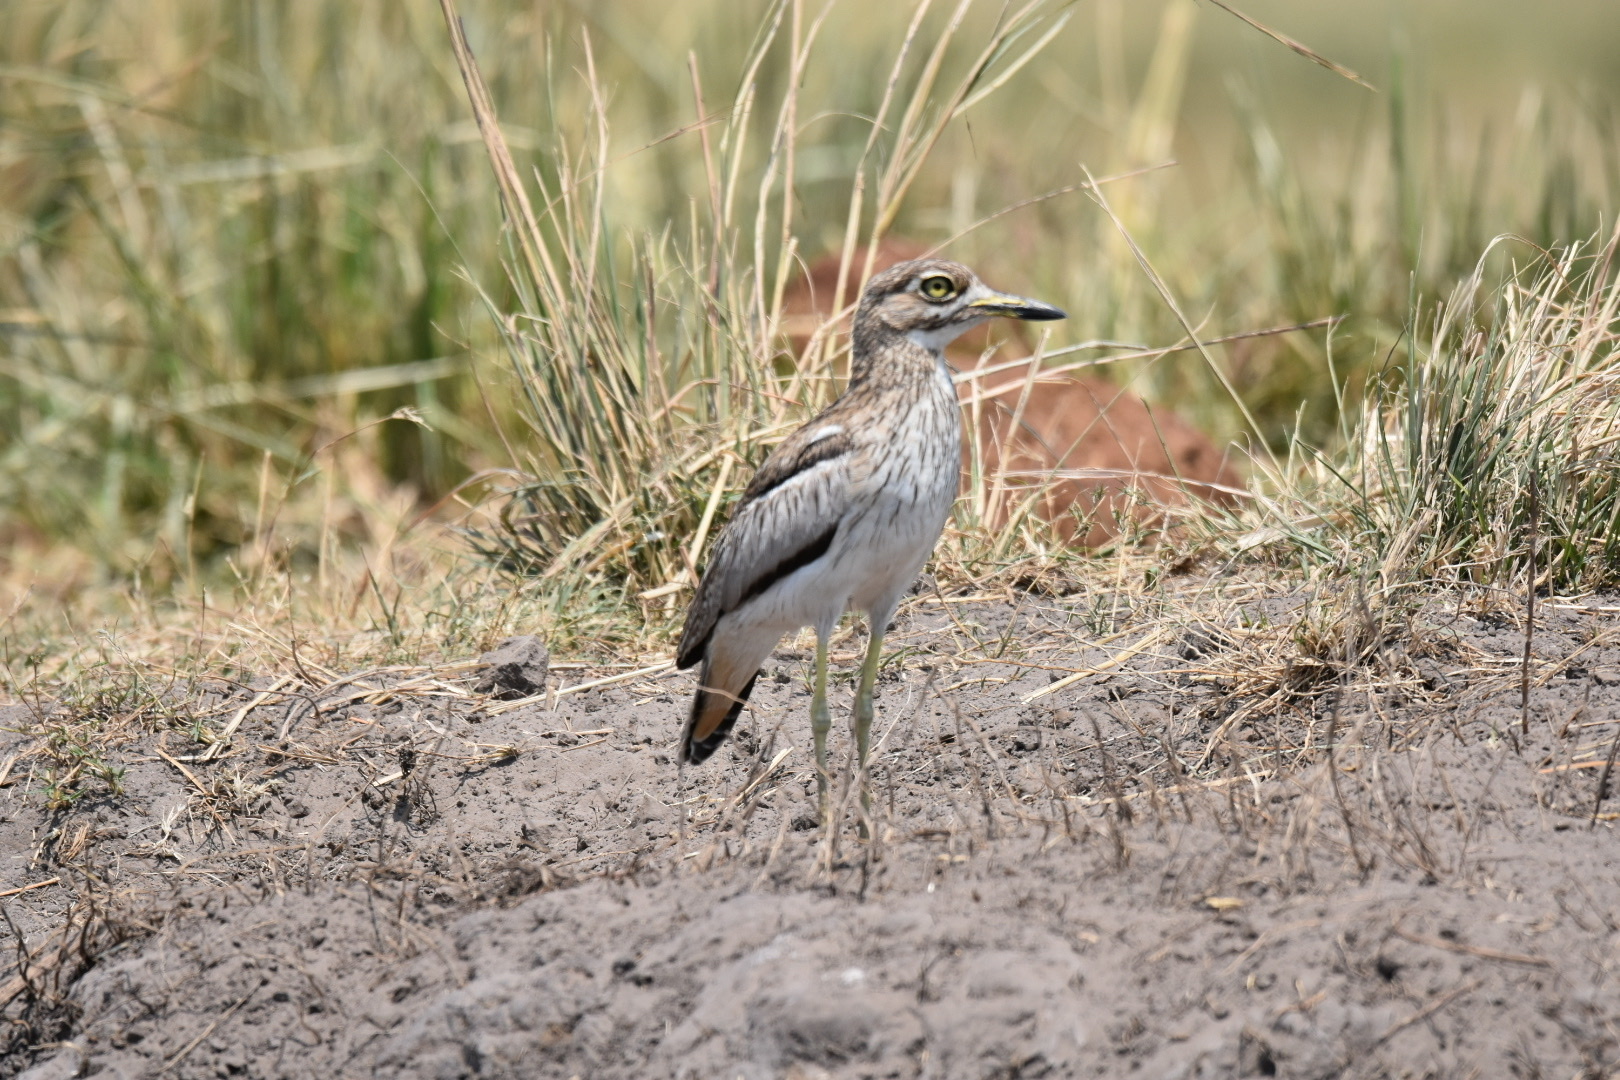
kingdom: Animalia
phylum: Chordata
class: Aves
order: Charadriiformes
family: Burhinidae
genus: Burhinus
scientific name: Burhinus vermiculatus
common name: Water thick-knee
